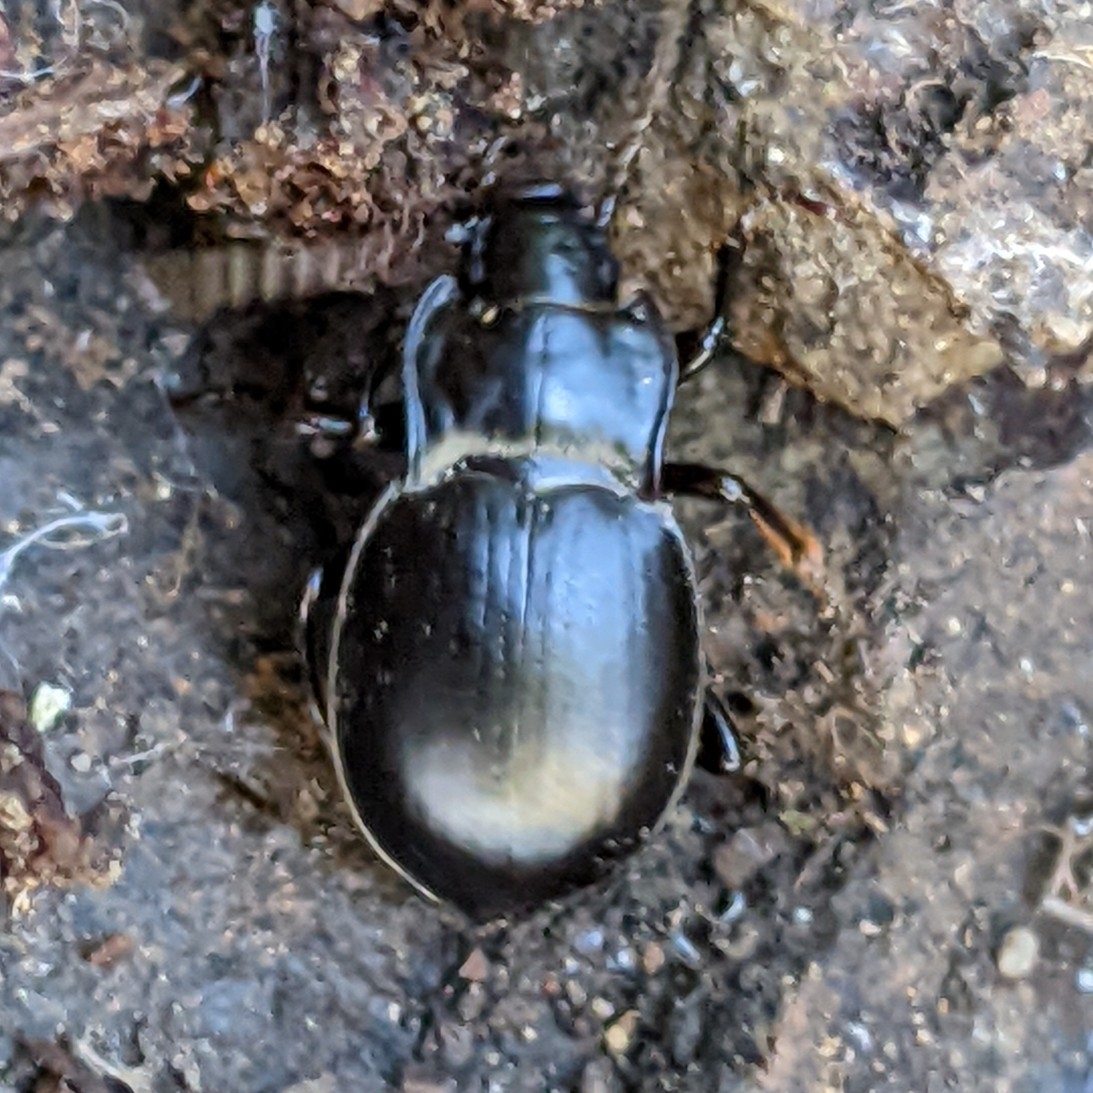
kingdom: Animalia
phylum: Arthropoda
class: Insecta
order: Coleoptera
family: Carabidae
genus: Metrius
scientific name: Metrius contractus
